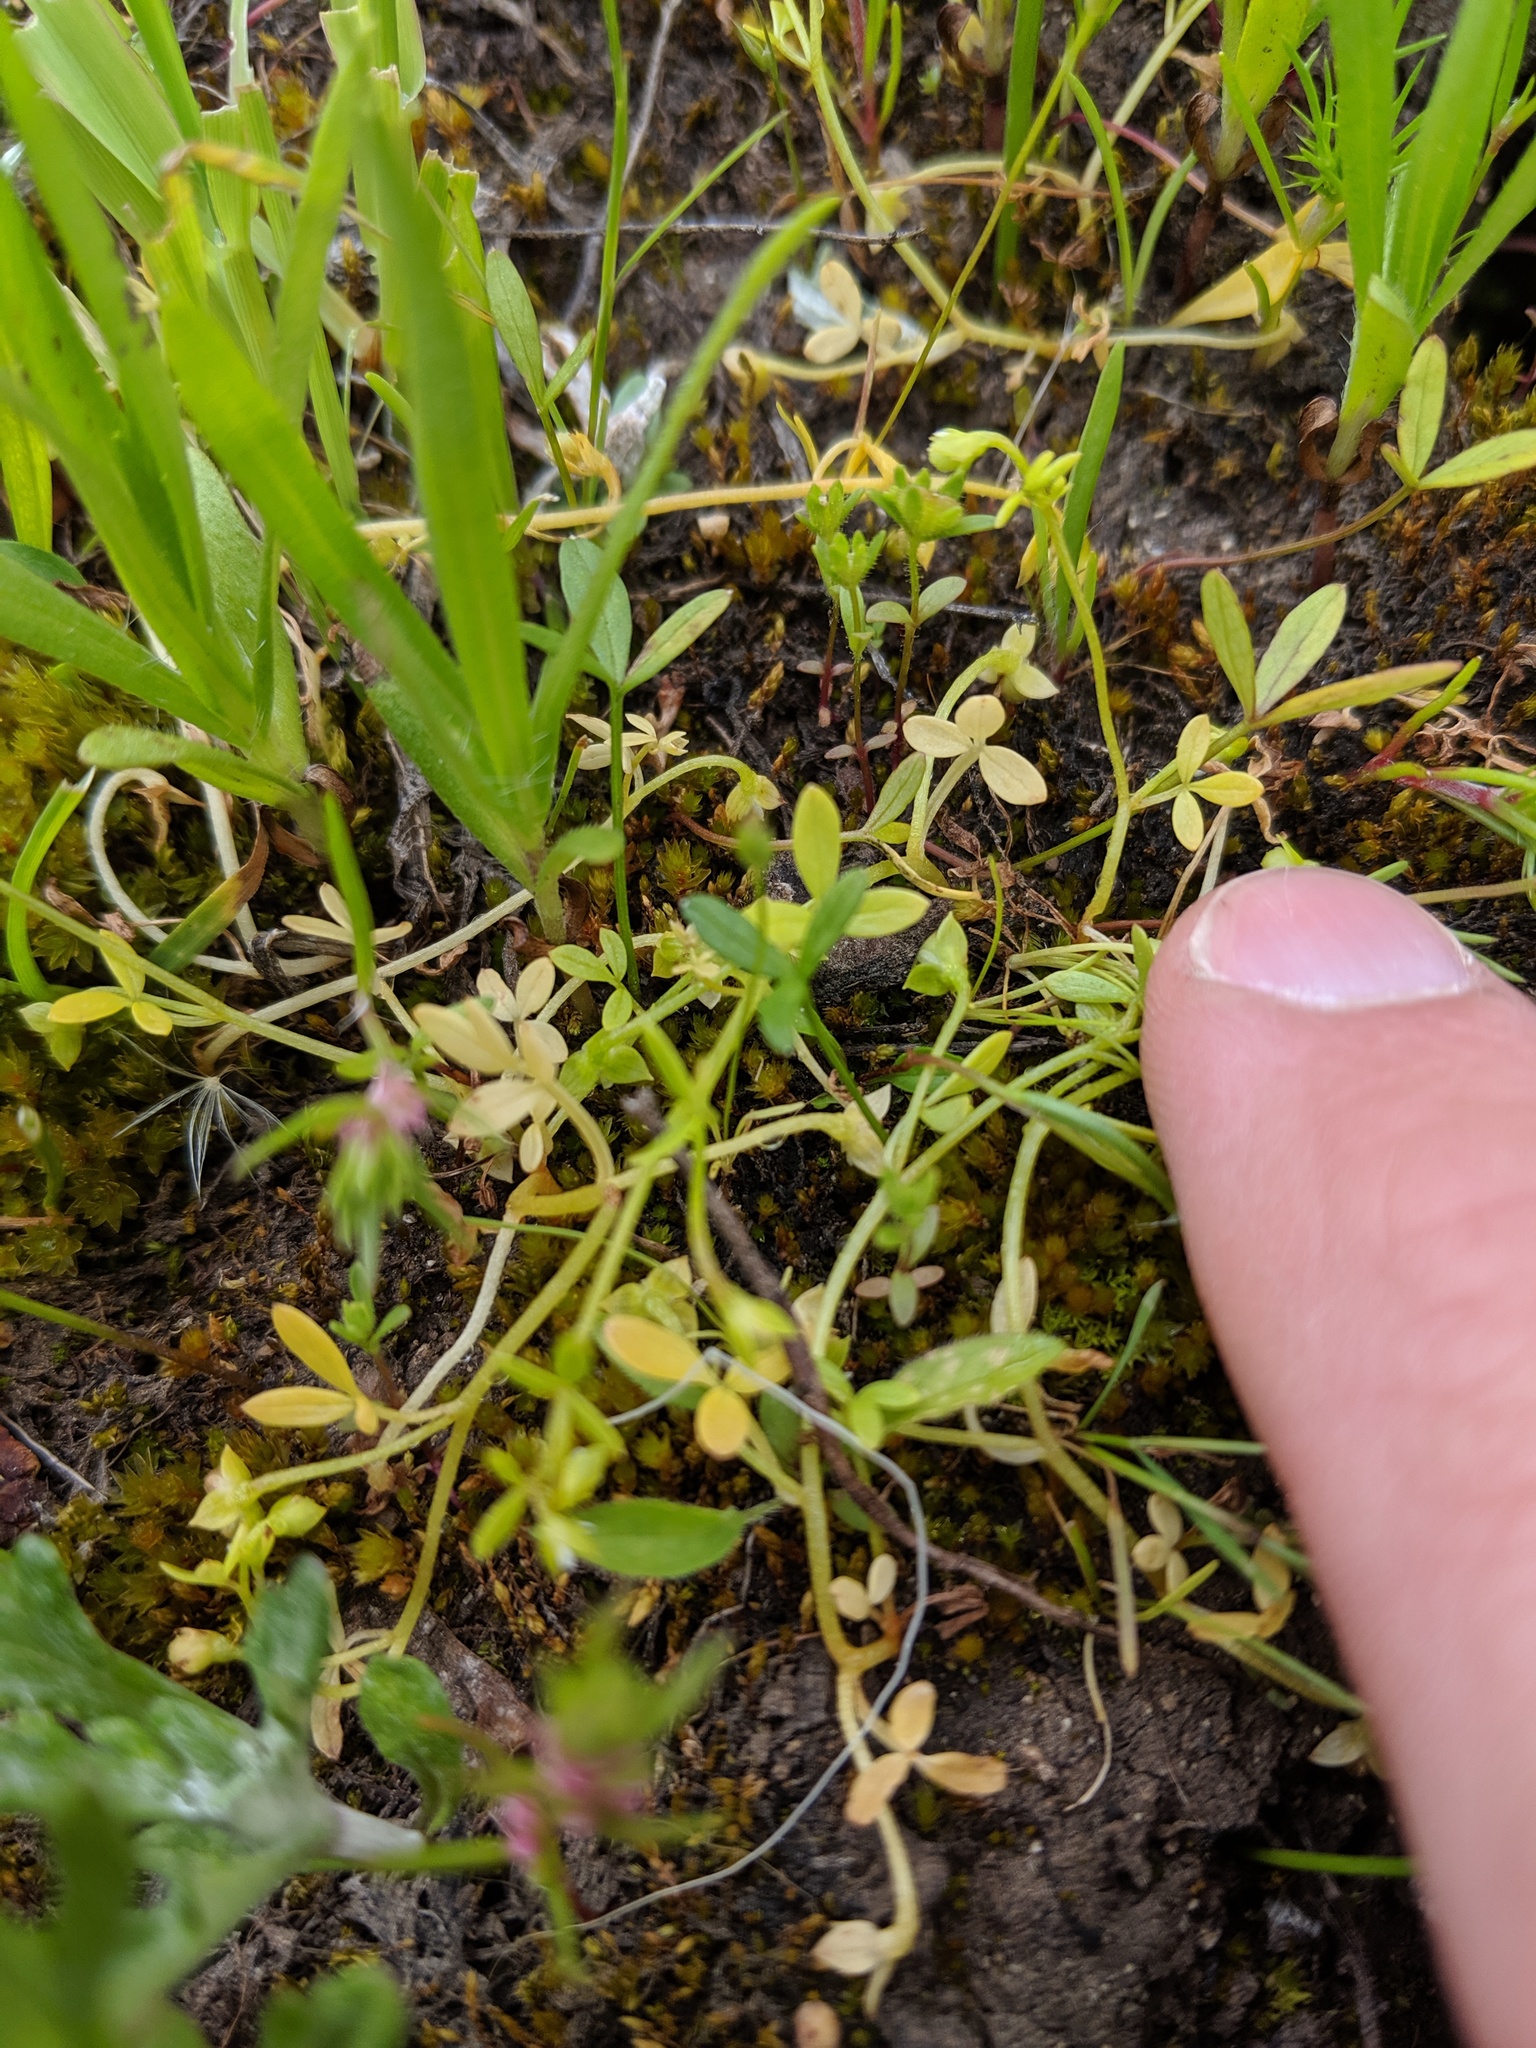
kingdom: Plantae
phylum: Tracheophyta
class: Magnoliopsida
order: Brassicales
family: Limnanthaceae
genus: Floerkea
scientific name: Floerkea proserpinacoides
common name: False mermaid
